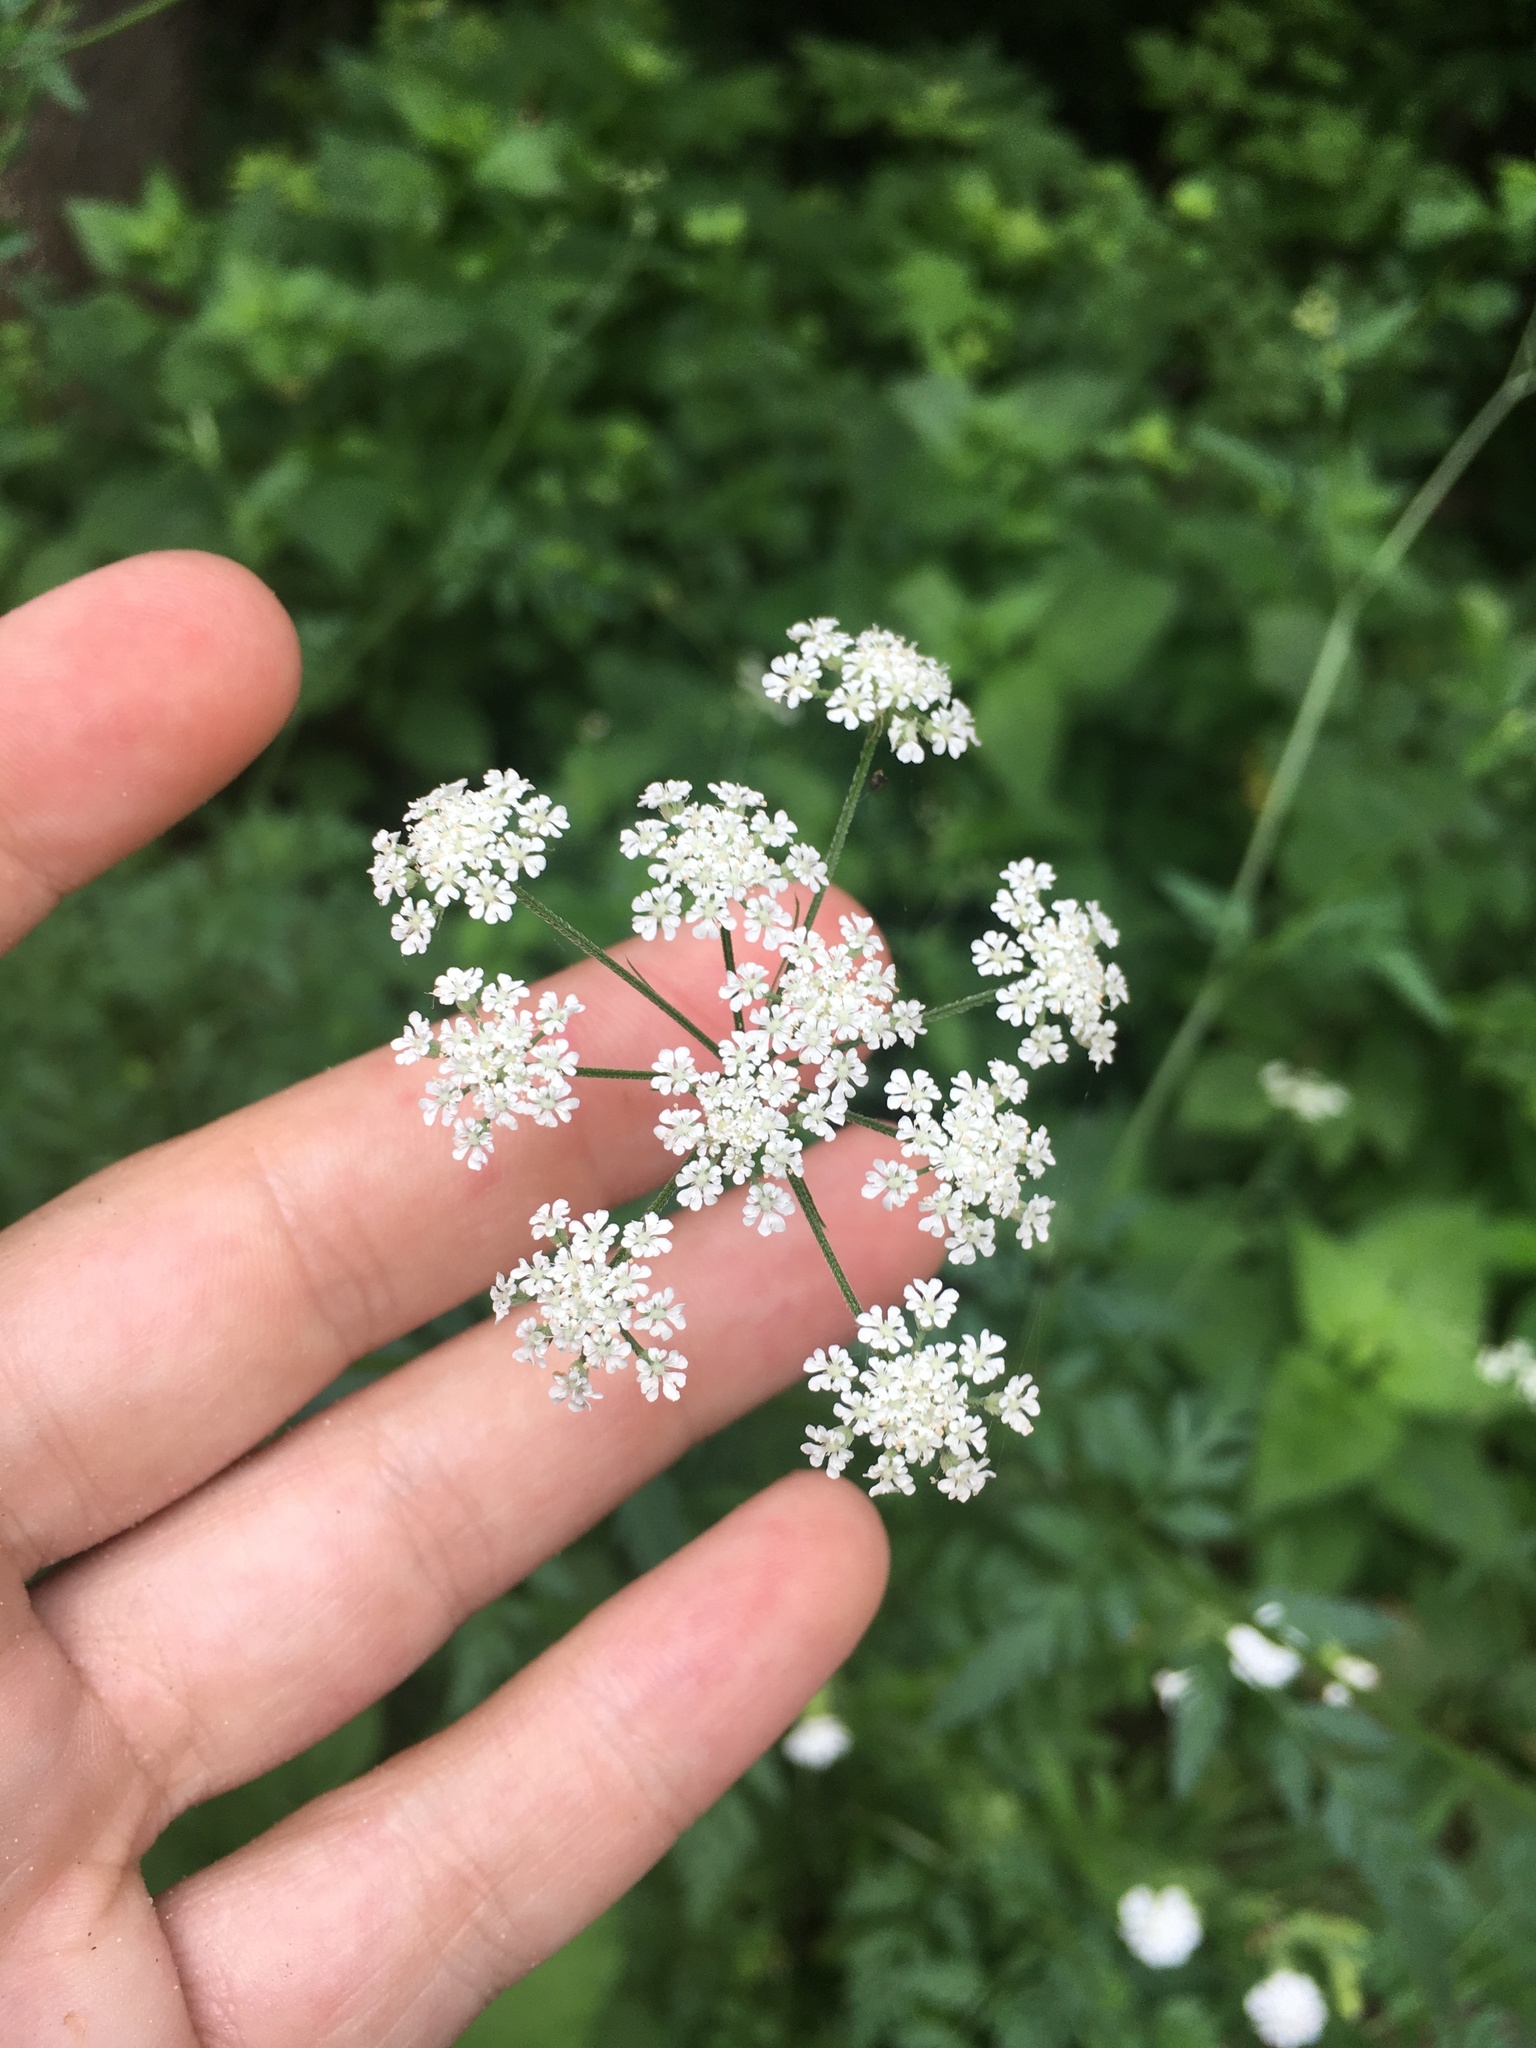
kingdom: Plantae
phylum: Tracheophyta
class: Magnoliopsida
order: Apiales
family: Apiaceae
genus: Torilis
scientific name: Torilis japonica
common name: Upright hedge-parsley
